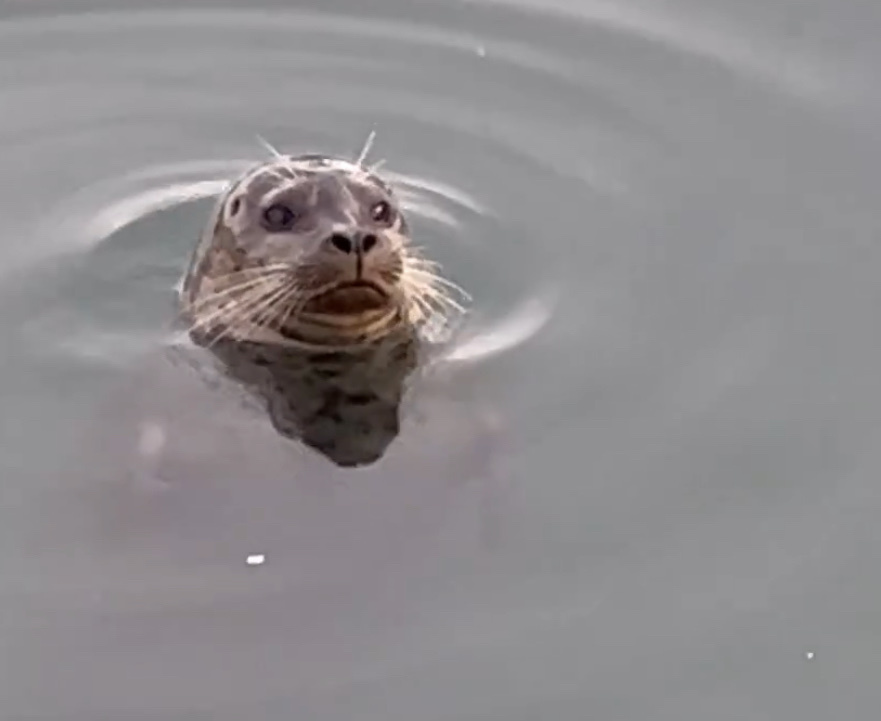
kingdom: Animalia
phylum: Chordata
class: Mammalia
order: Carnivora
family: Phocidae
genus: Phoca
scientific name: Phoca vitulina
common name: Harbor seal
